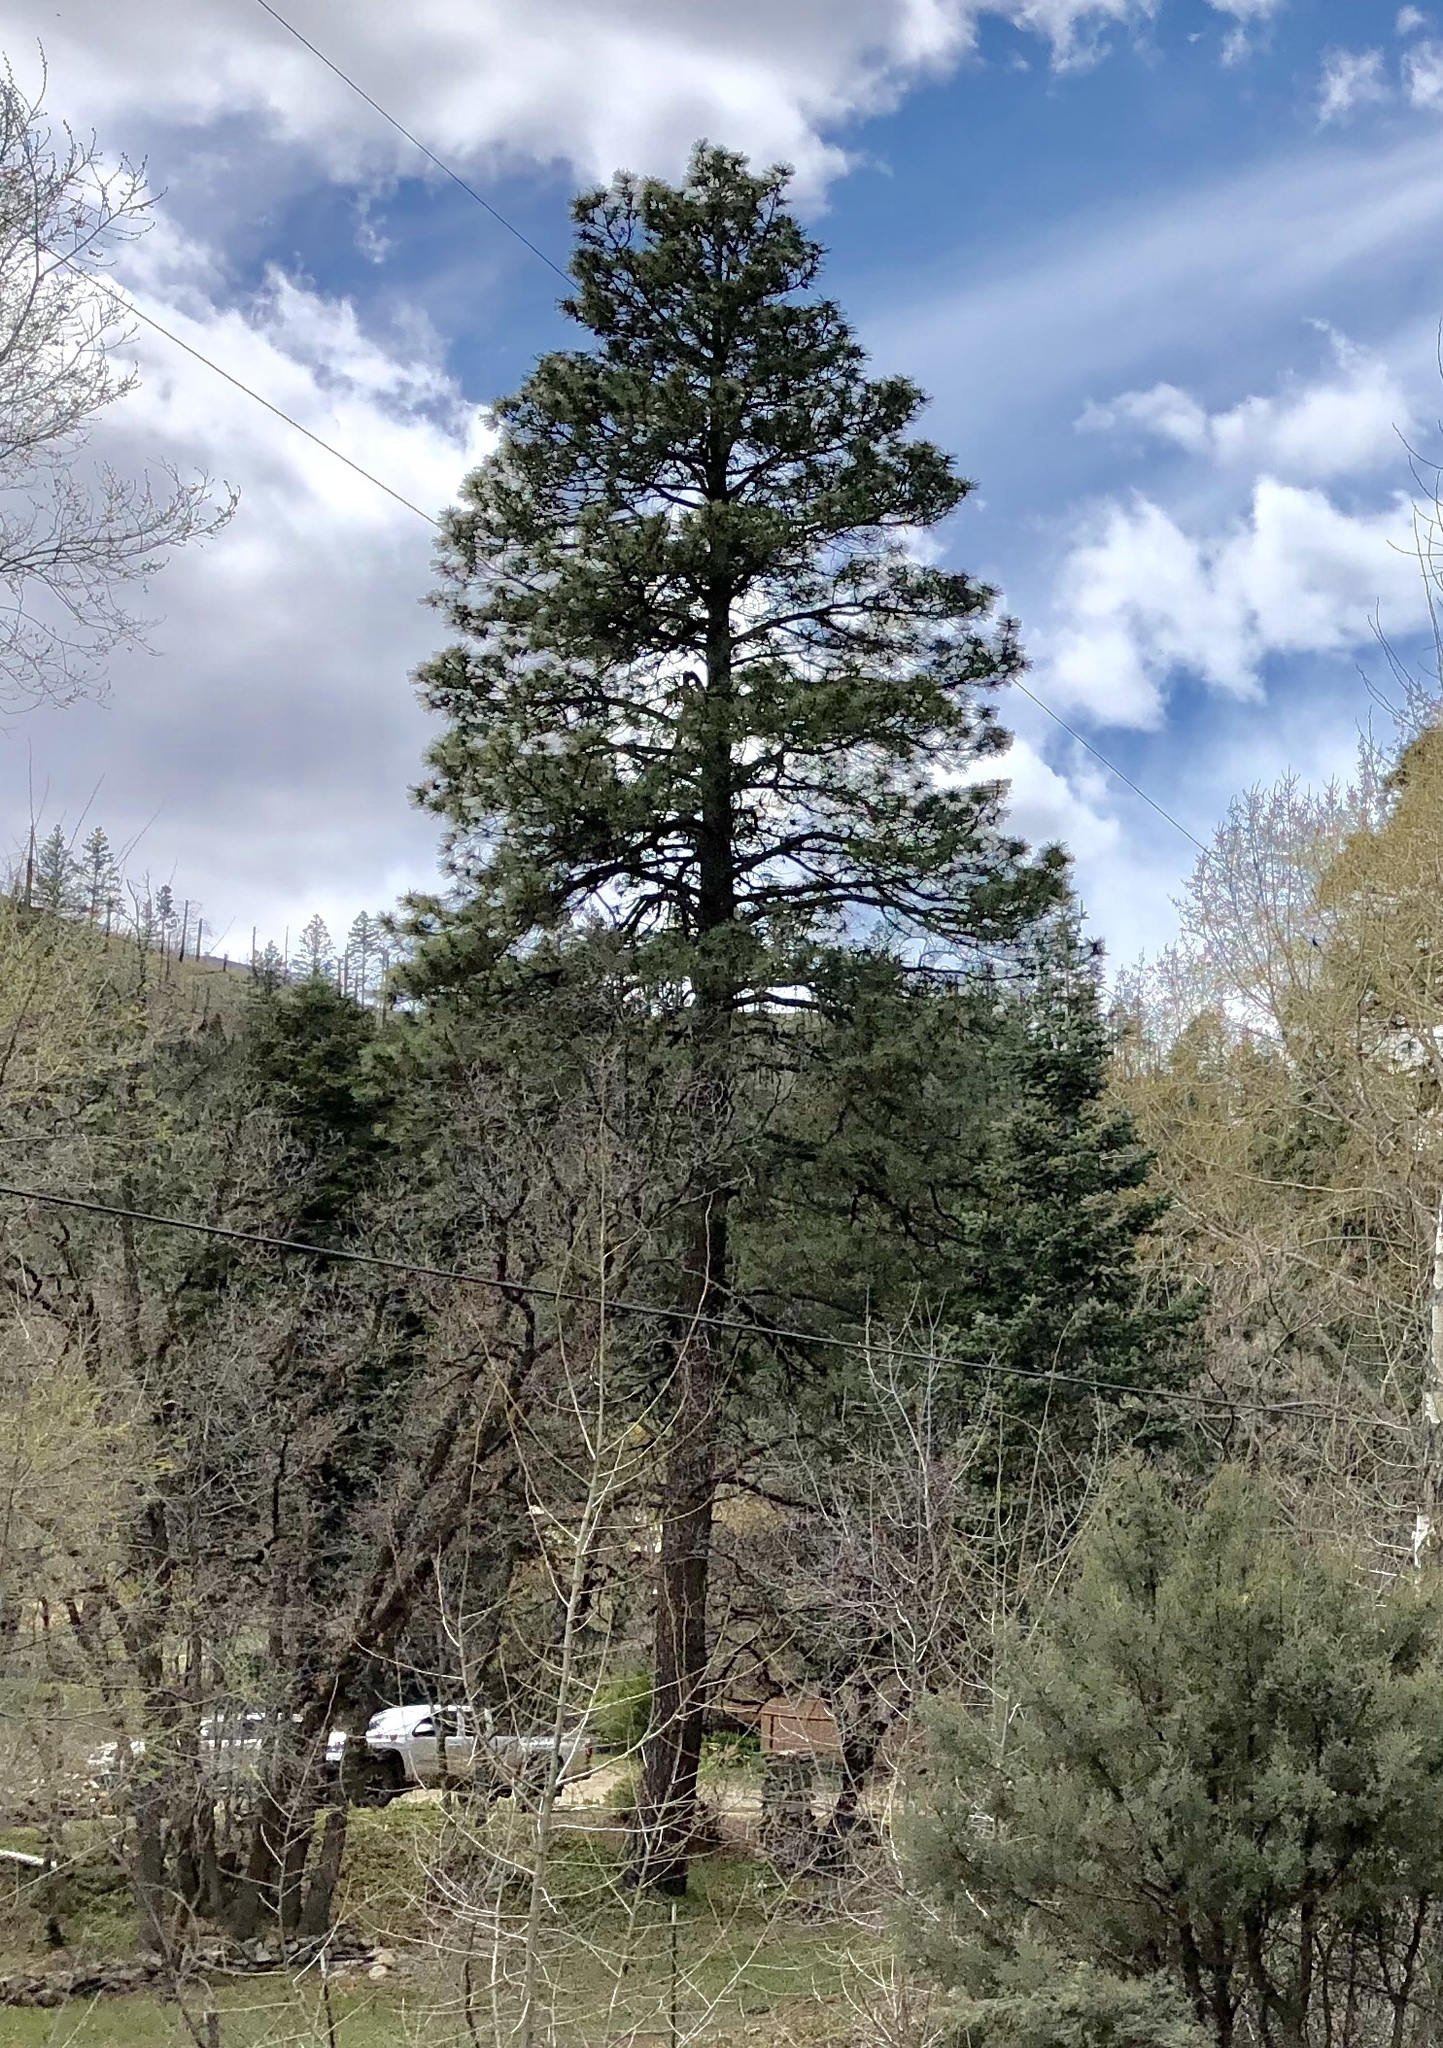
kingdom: Plantae
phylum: Tracheophyta
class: Pinopsida
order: Pinales
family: Pinaceae
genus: Pinus
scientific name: Pinus ponderosa
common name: Western yellow-pine
